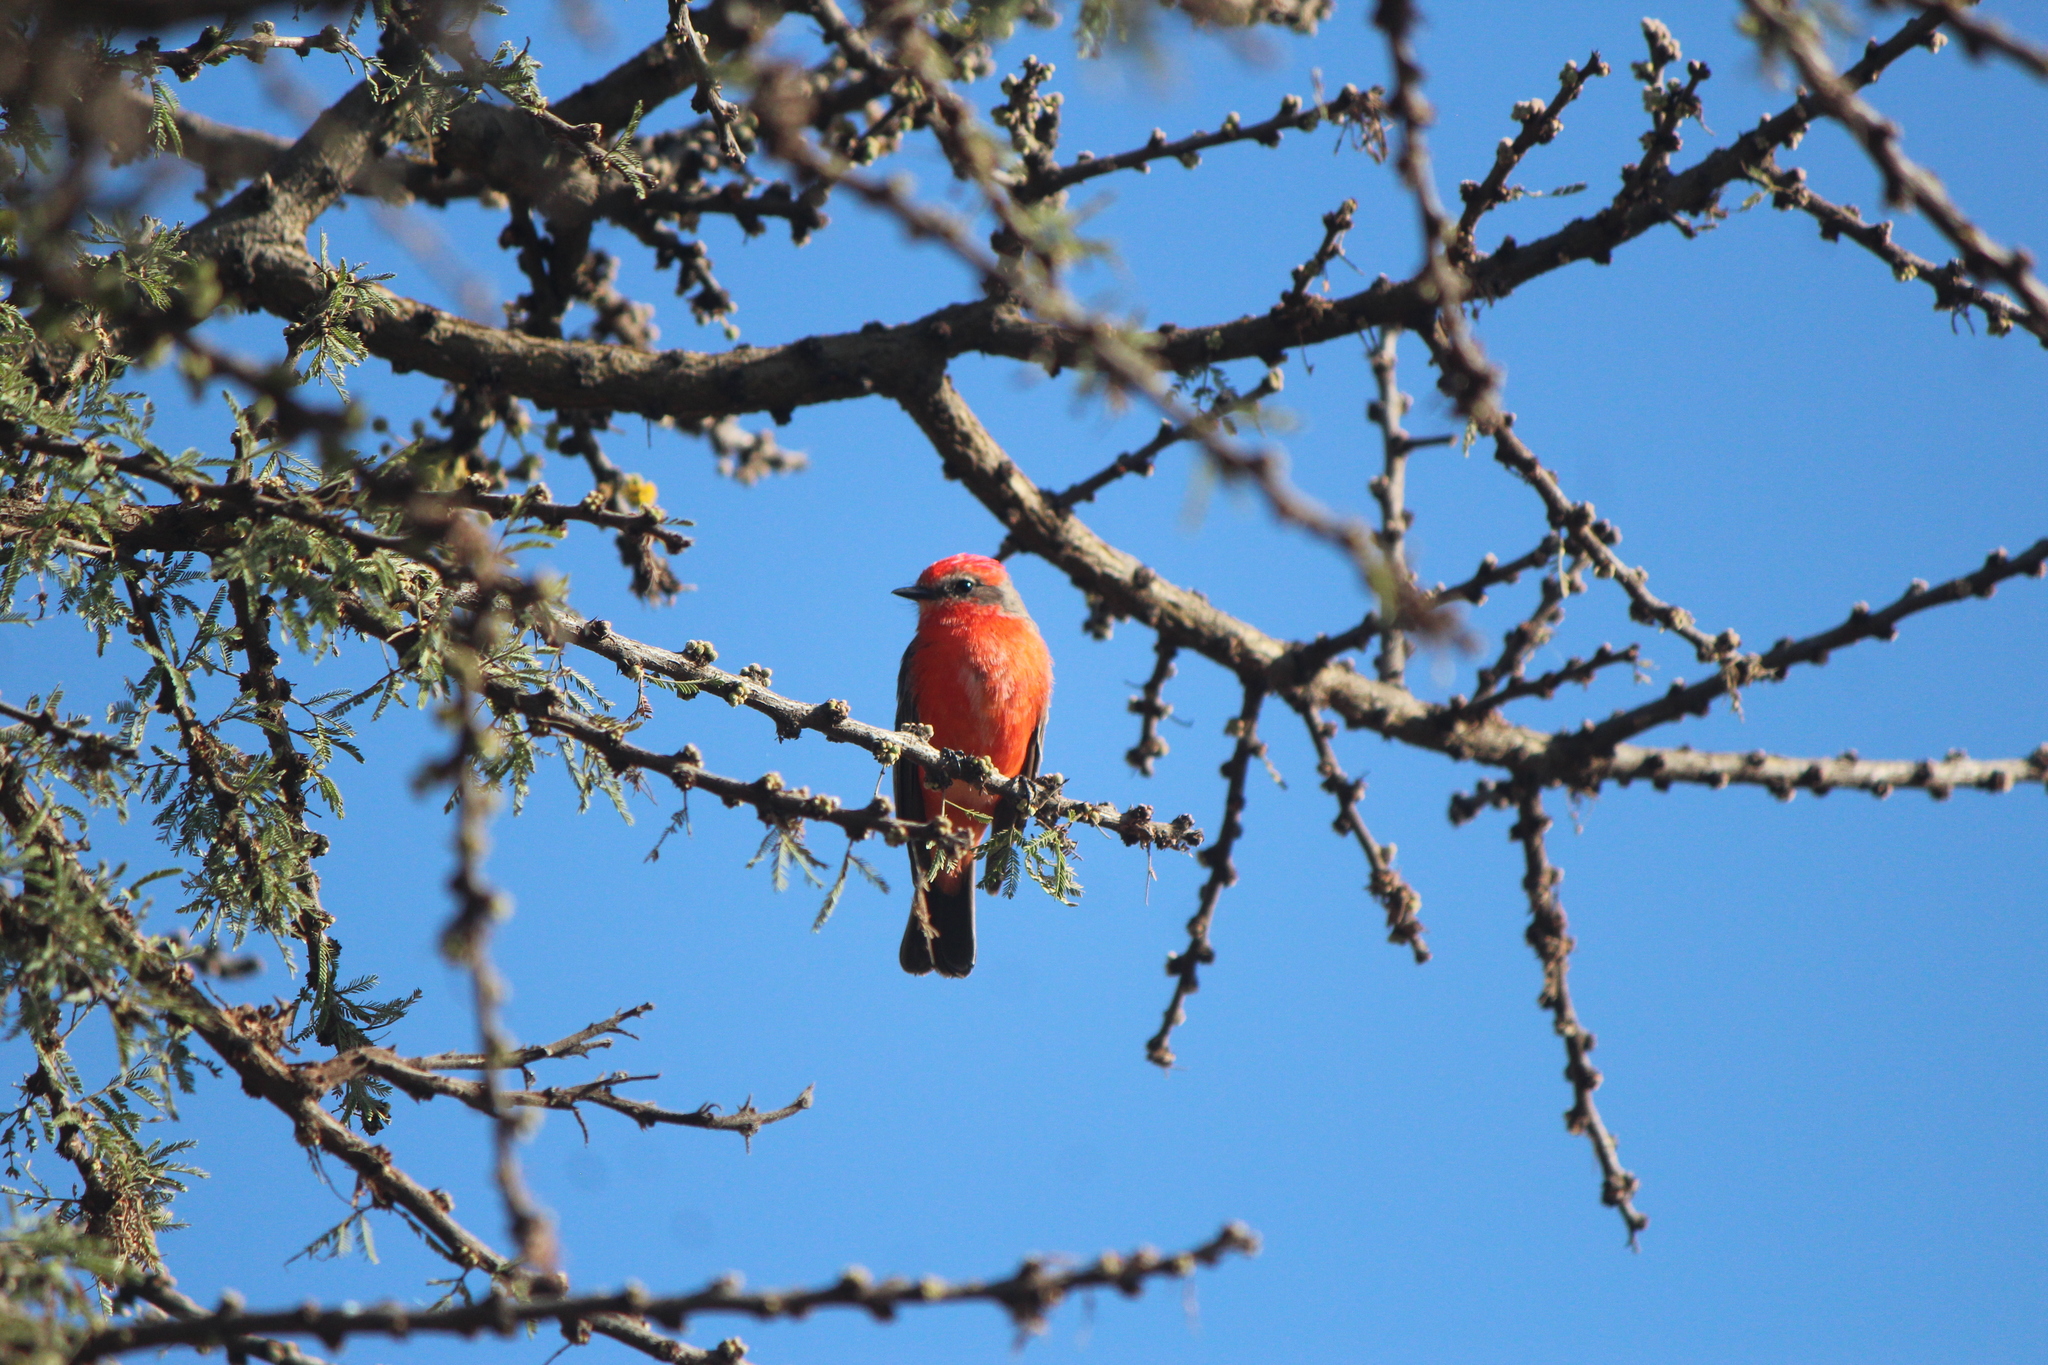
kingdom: Animalia
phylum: Chordata
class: Aves
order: Passeriformes
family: Tyrannidae
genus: Pyrocephalus
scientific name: Pyrocephalus rubinus
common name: Vermilion flycatcher
